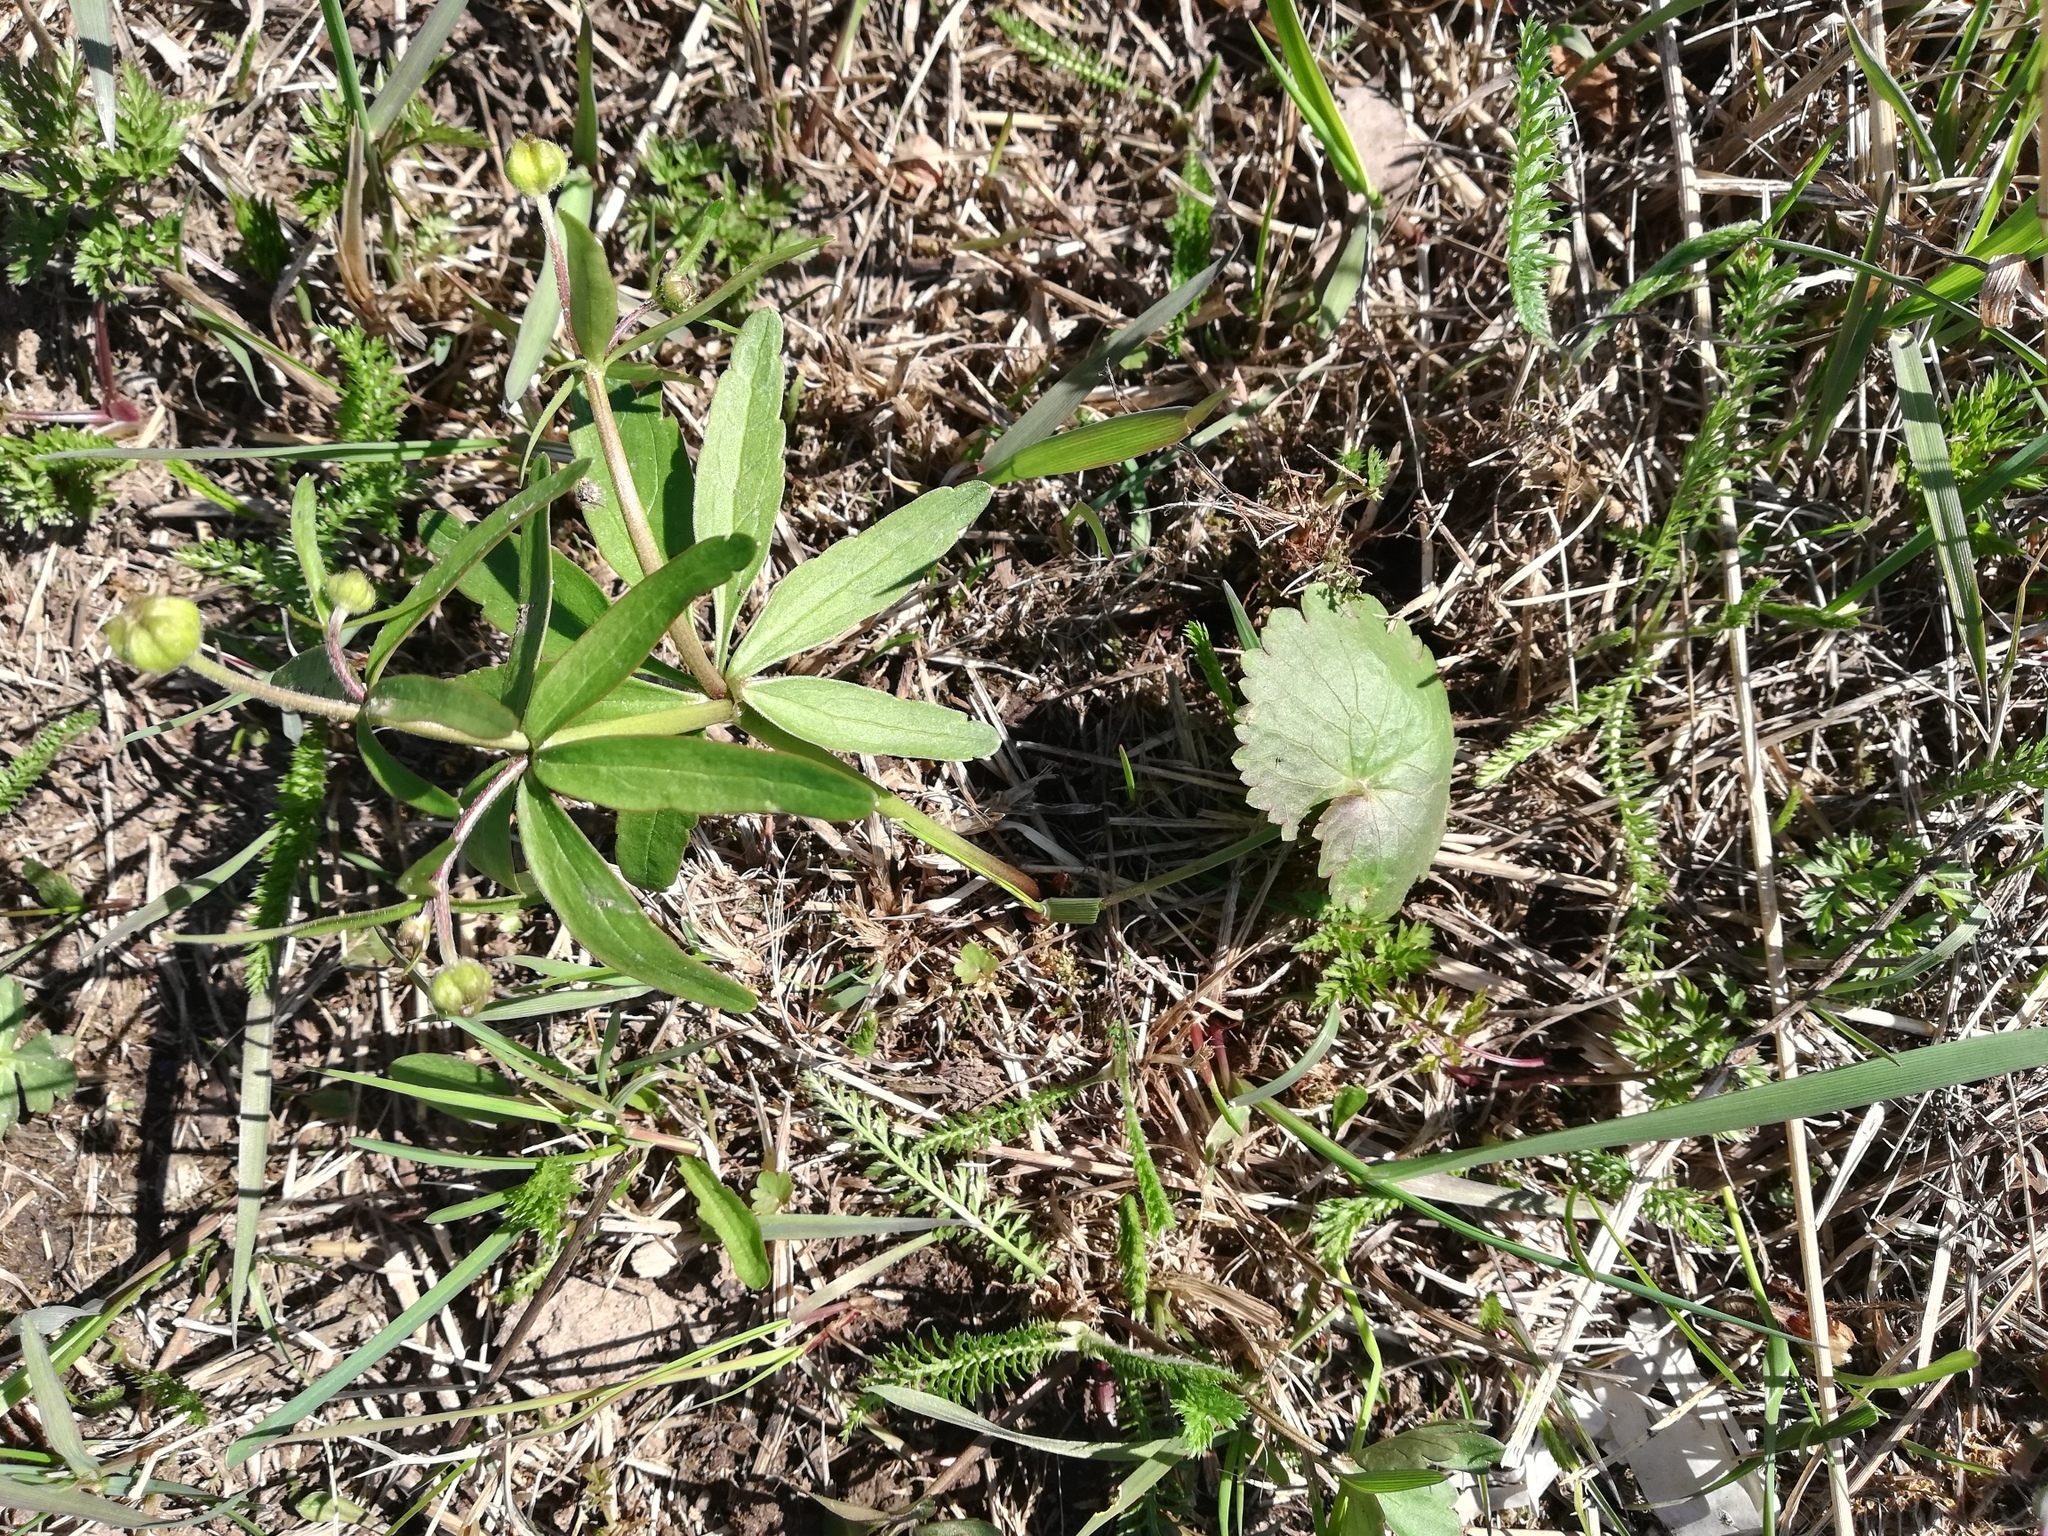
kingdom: Plantae
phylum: Tracheophyta
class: Magnoliopsida
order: Ranunculales
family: Ranunculaceae
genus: Ranunculus
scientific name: Ranunculus cassubicus
